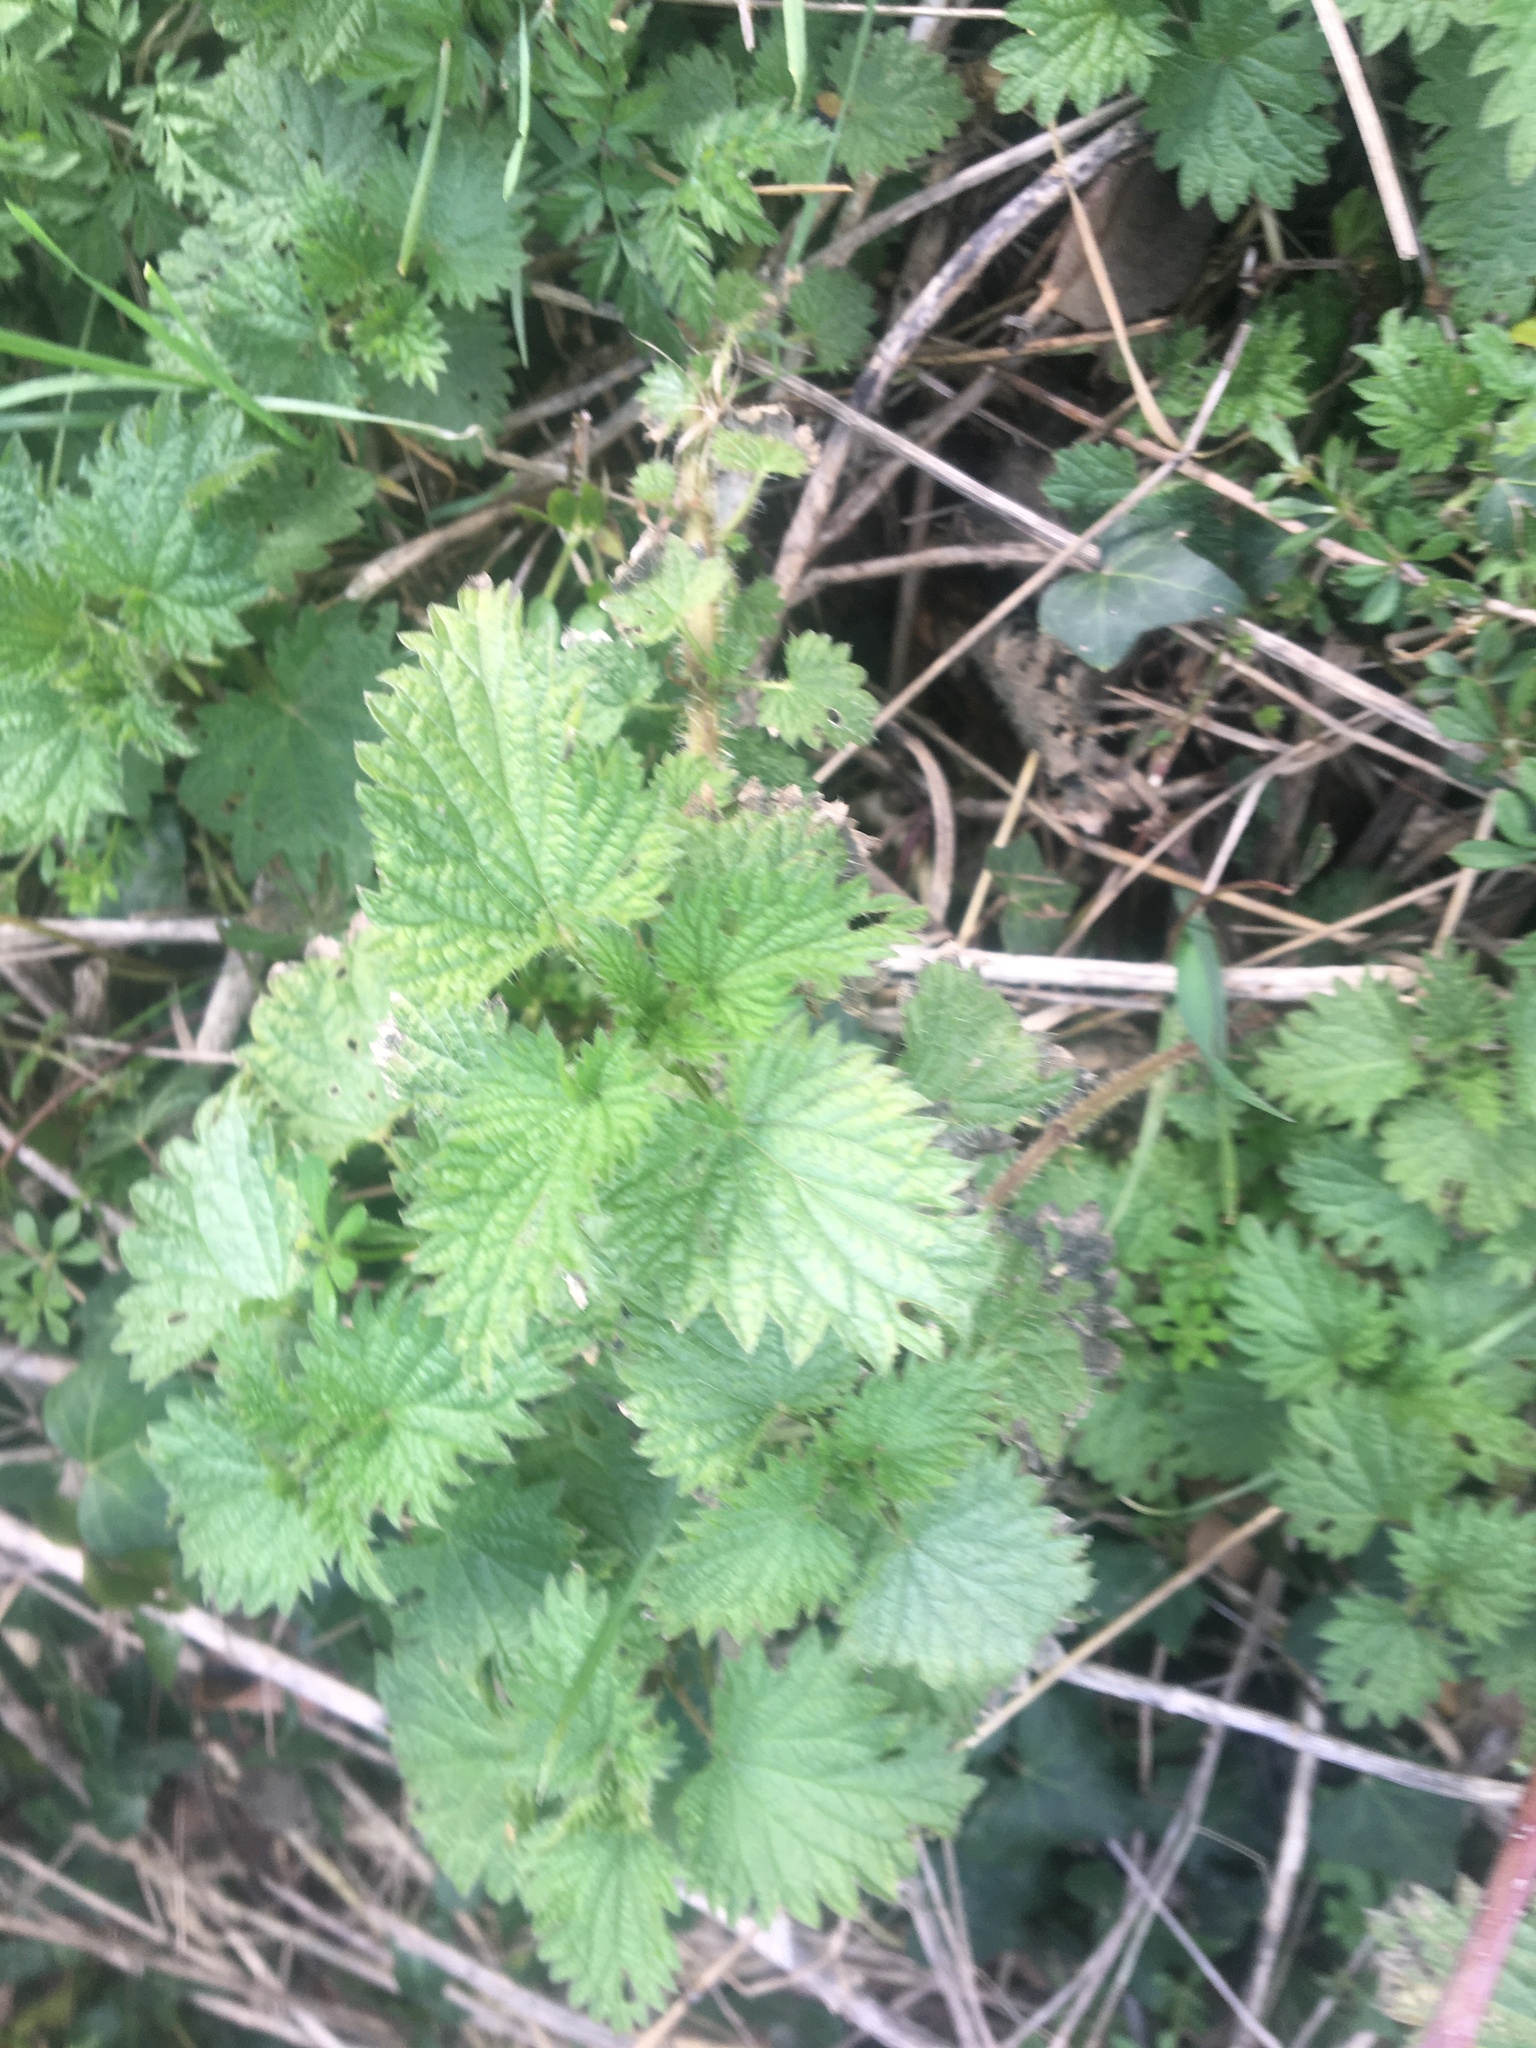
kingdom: Plantae
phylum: Tracheophyta
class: Magnoliopsida
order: Rosales
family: Urticaceae
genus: Urtica
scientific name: Urtica dioica
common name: Common nettle
